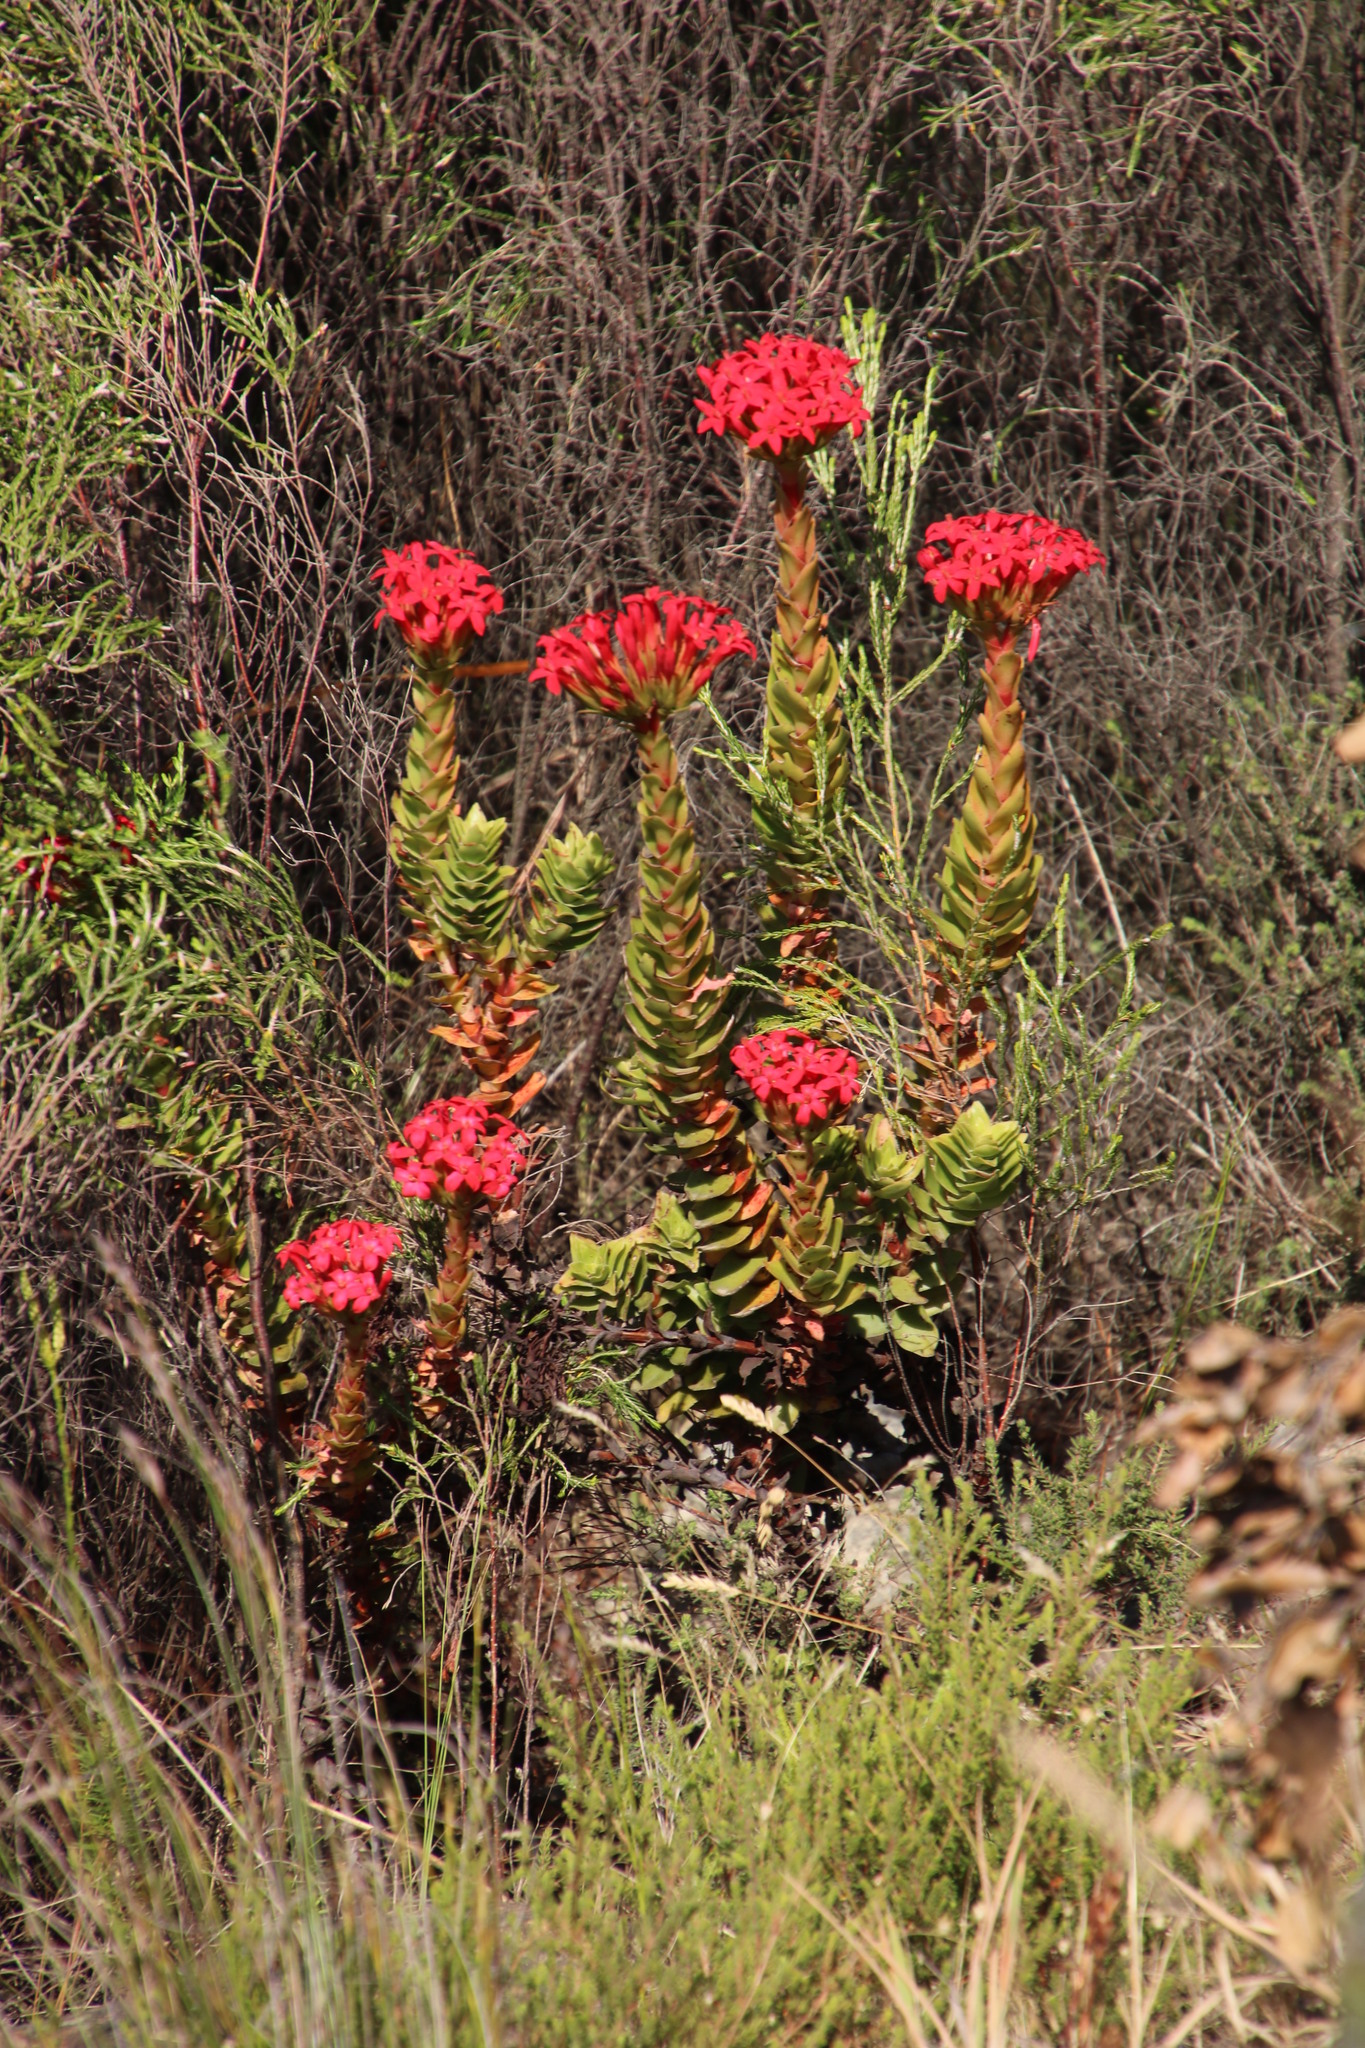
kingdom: Plantae
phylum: Tracheophyta
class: Magnoliopsida
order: Saxifragales
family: Crassulaceae
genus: Crassula
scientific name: Crassula coccinea
